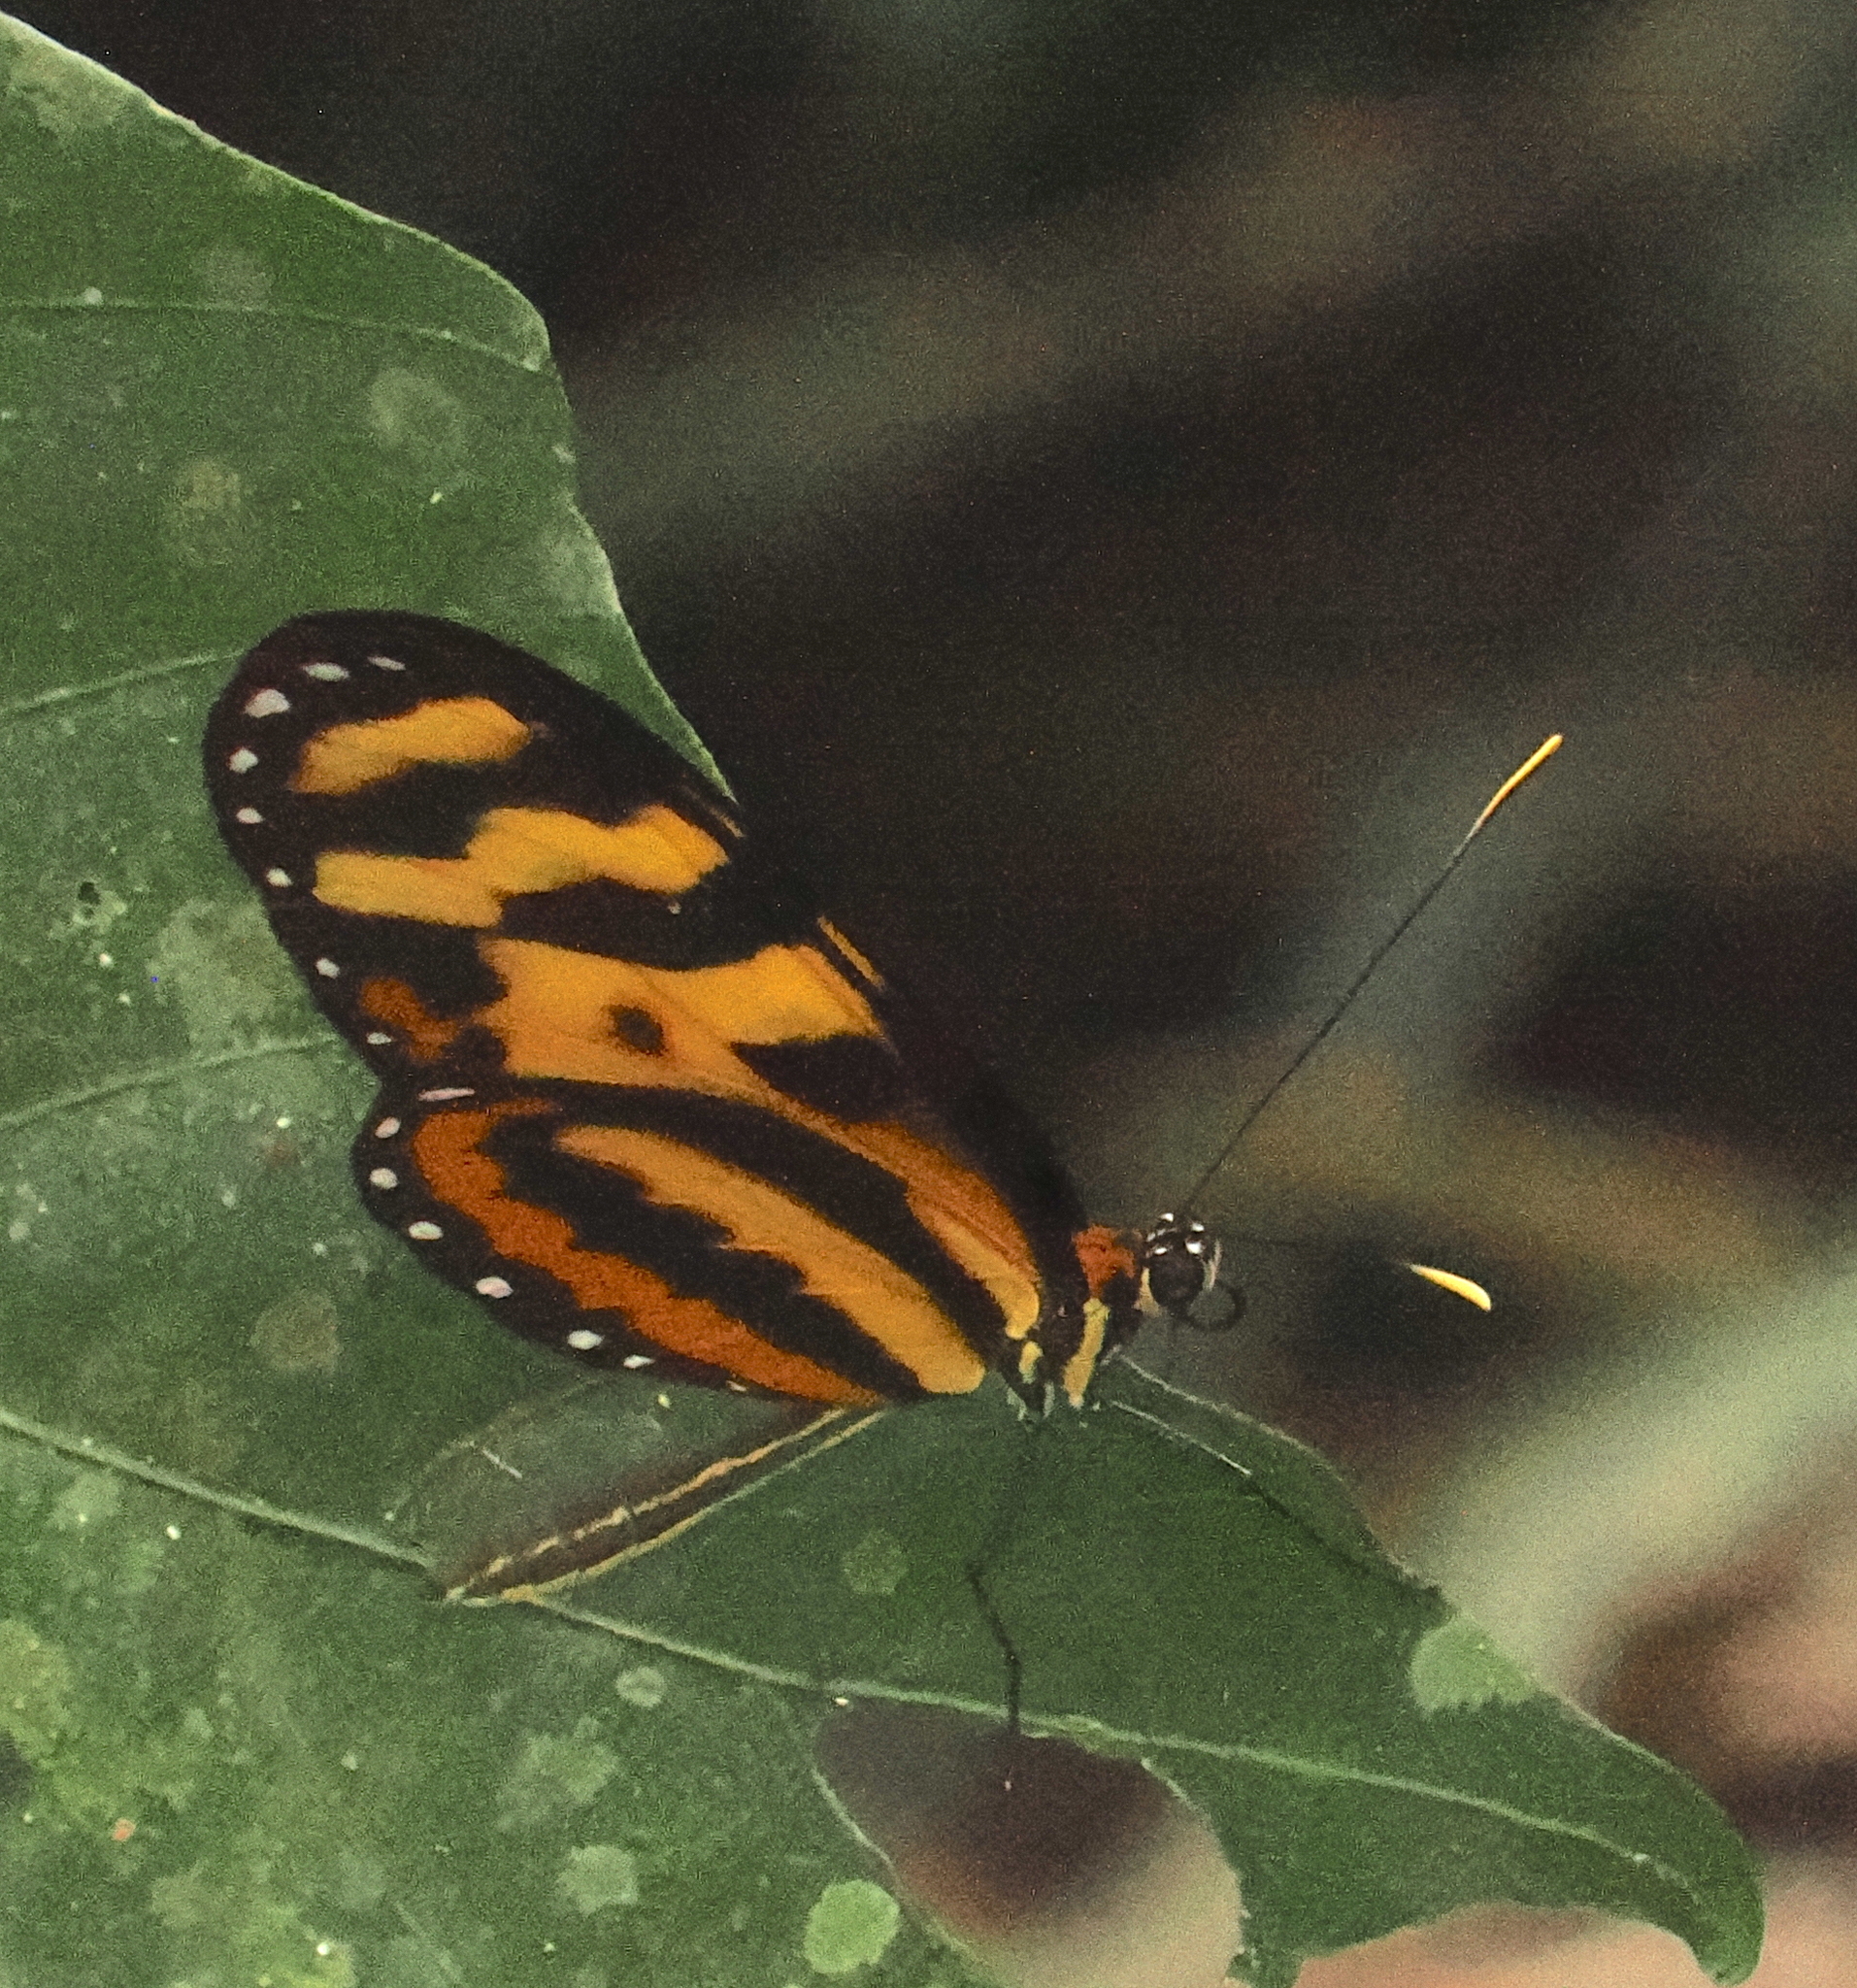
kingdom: Animalia
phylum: Arthropoda
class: Insecta
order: Lepidoptera
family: Nymphalidae
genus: Mechanitis
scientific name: Mechanitis menapis
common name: Menapis tigerwing
